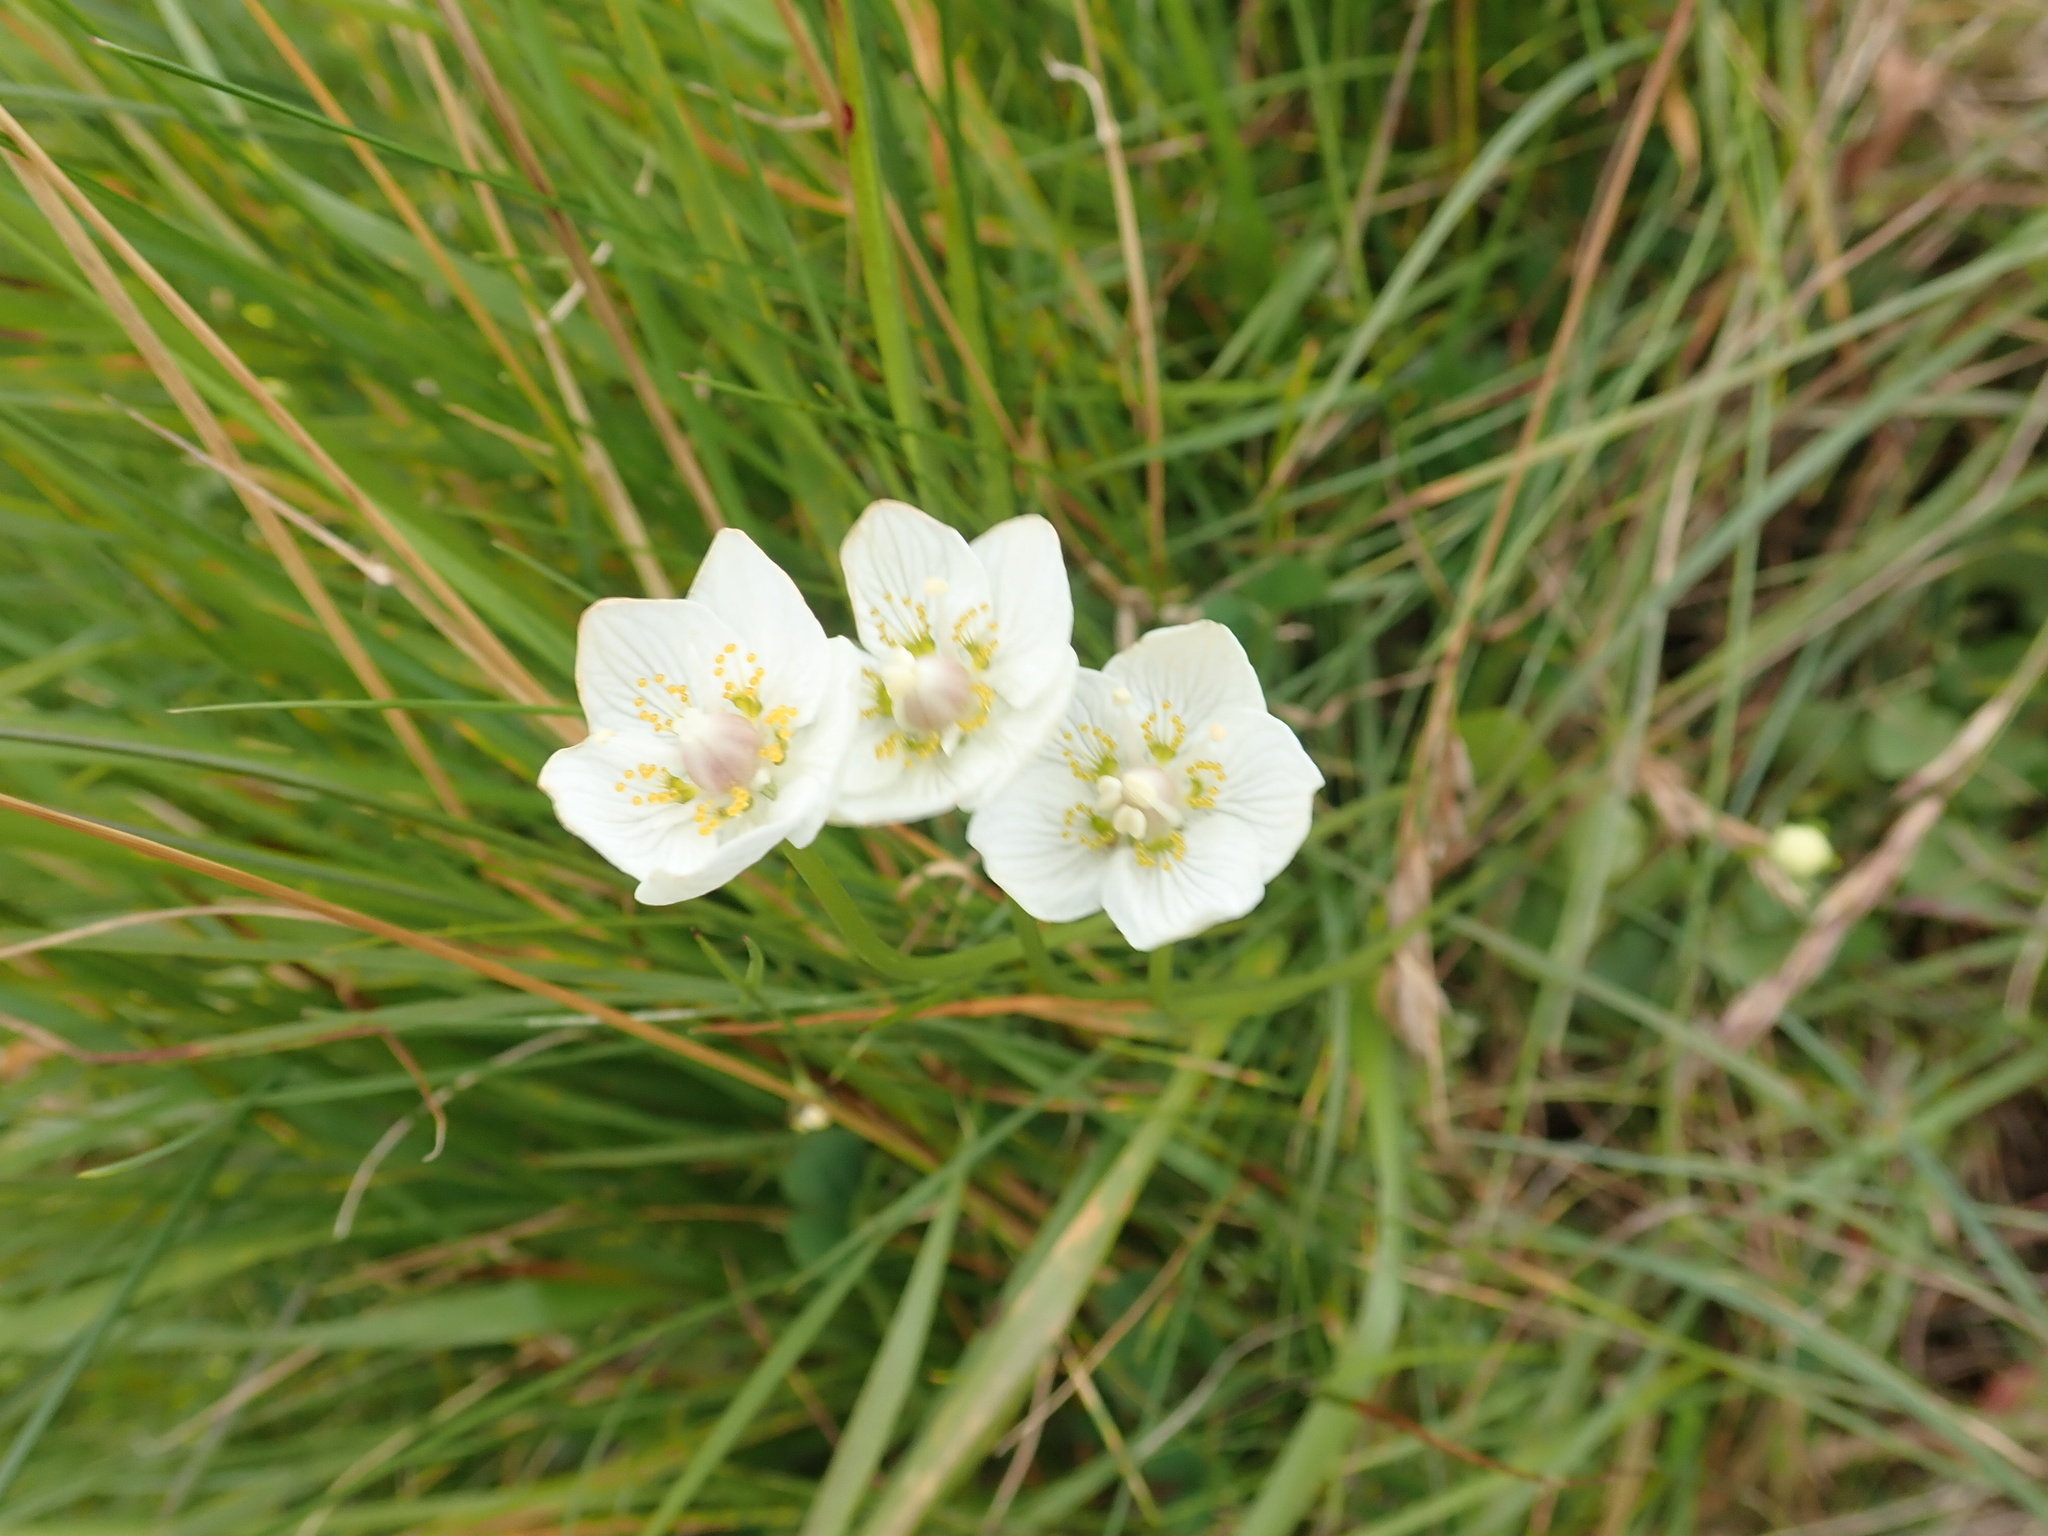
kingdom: Plantae
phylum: Tracheophyta
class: Magnoliopsida
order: Celastrales
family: Parnassiaceae
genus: Parnassia
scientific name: Parnassia palustris
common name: Grass-of-parnassus
